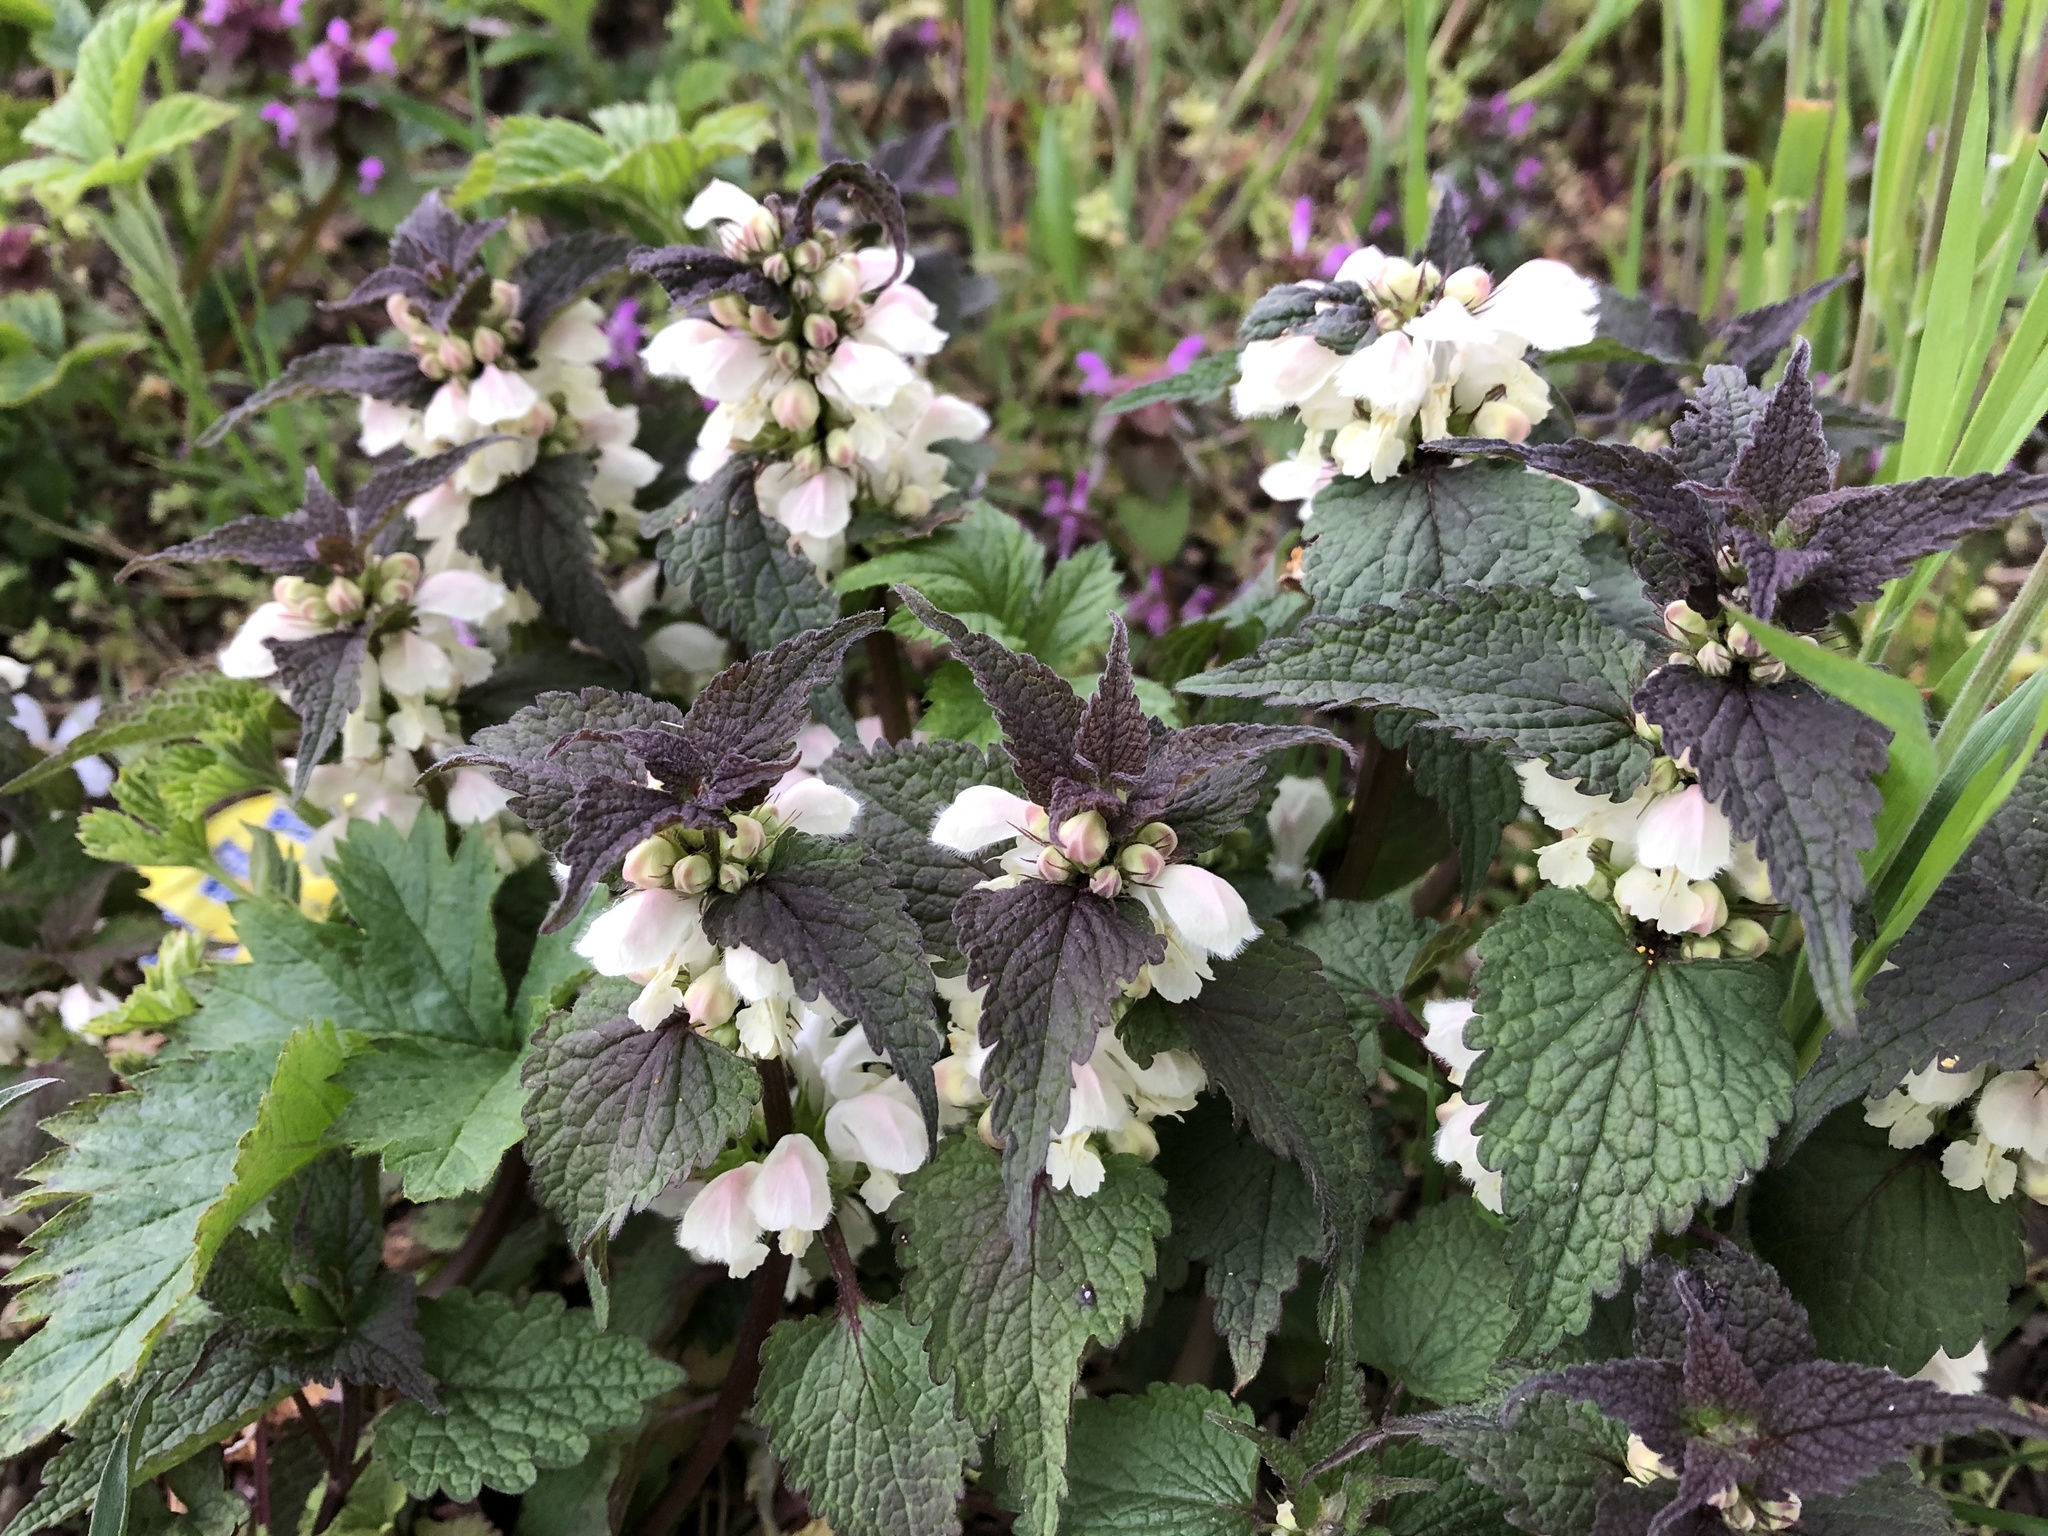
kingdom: Plantae
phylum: Tracheophyta
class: Magnoliopsida
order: Lamiales
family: Lamiaceae
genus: Lamium
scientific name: Lamium album
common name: White dead-nettle
